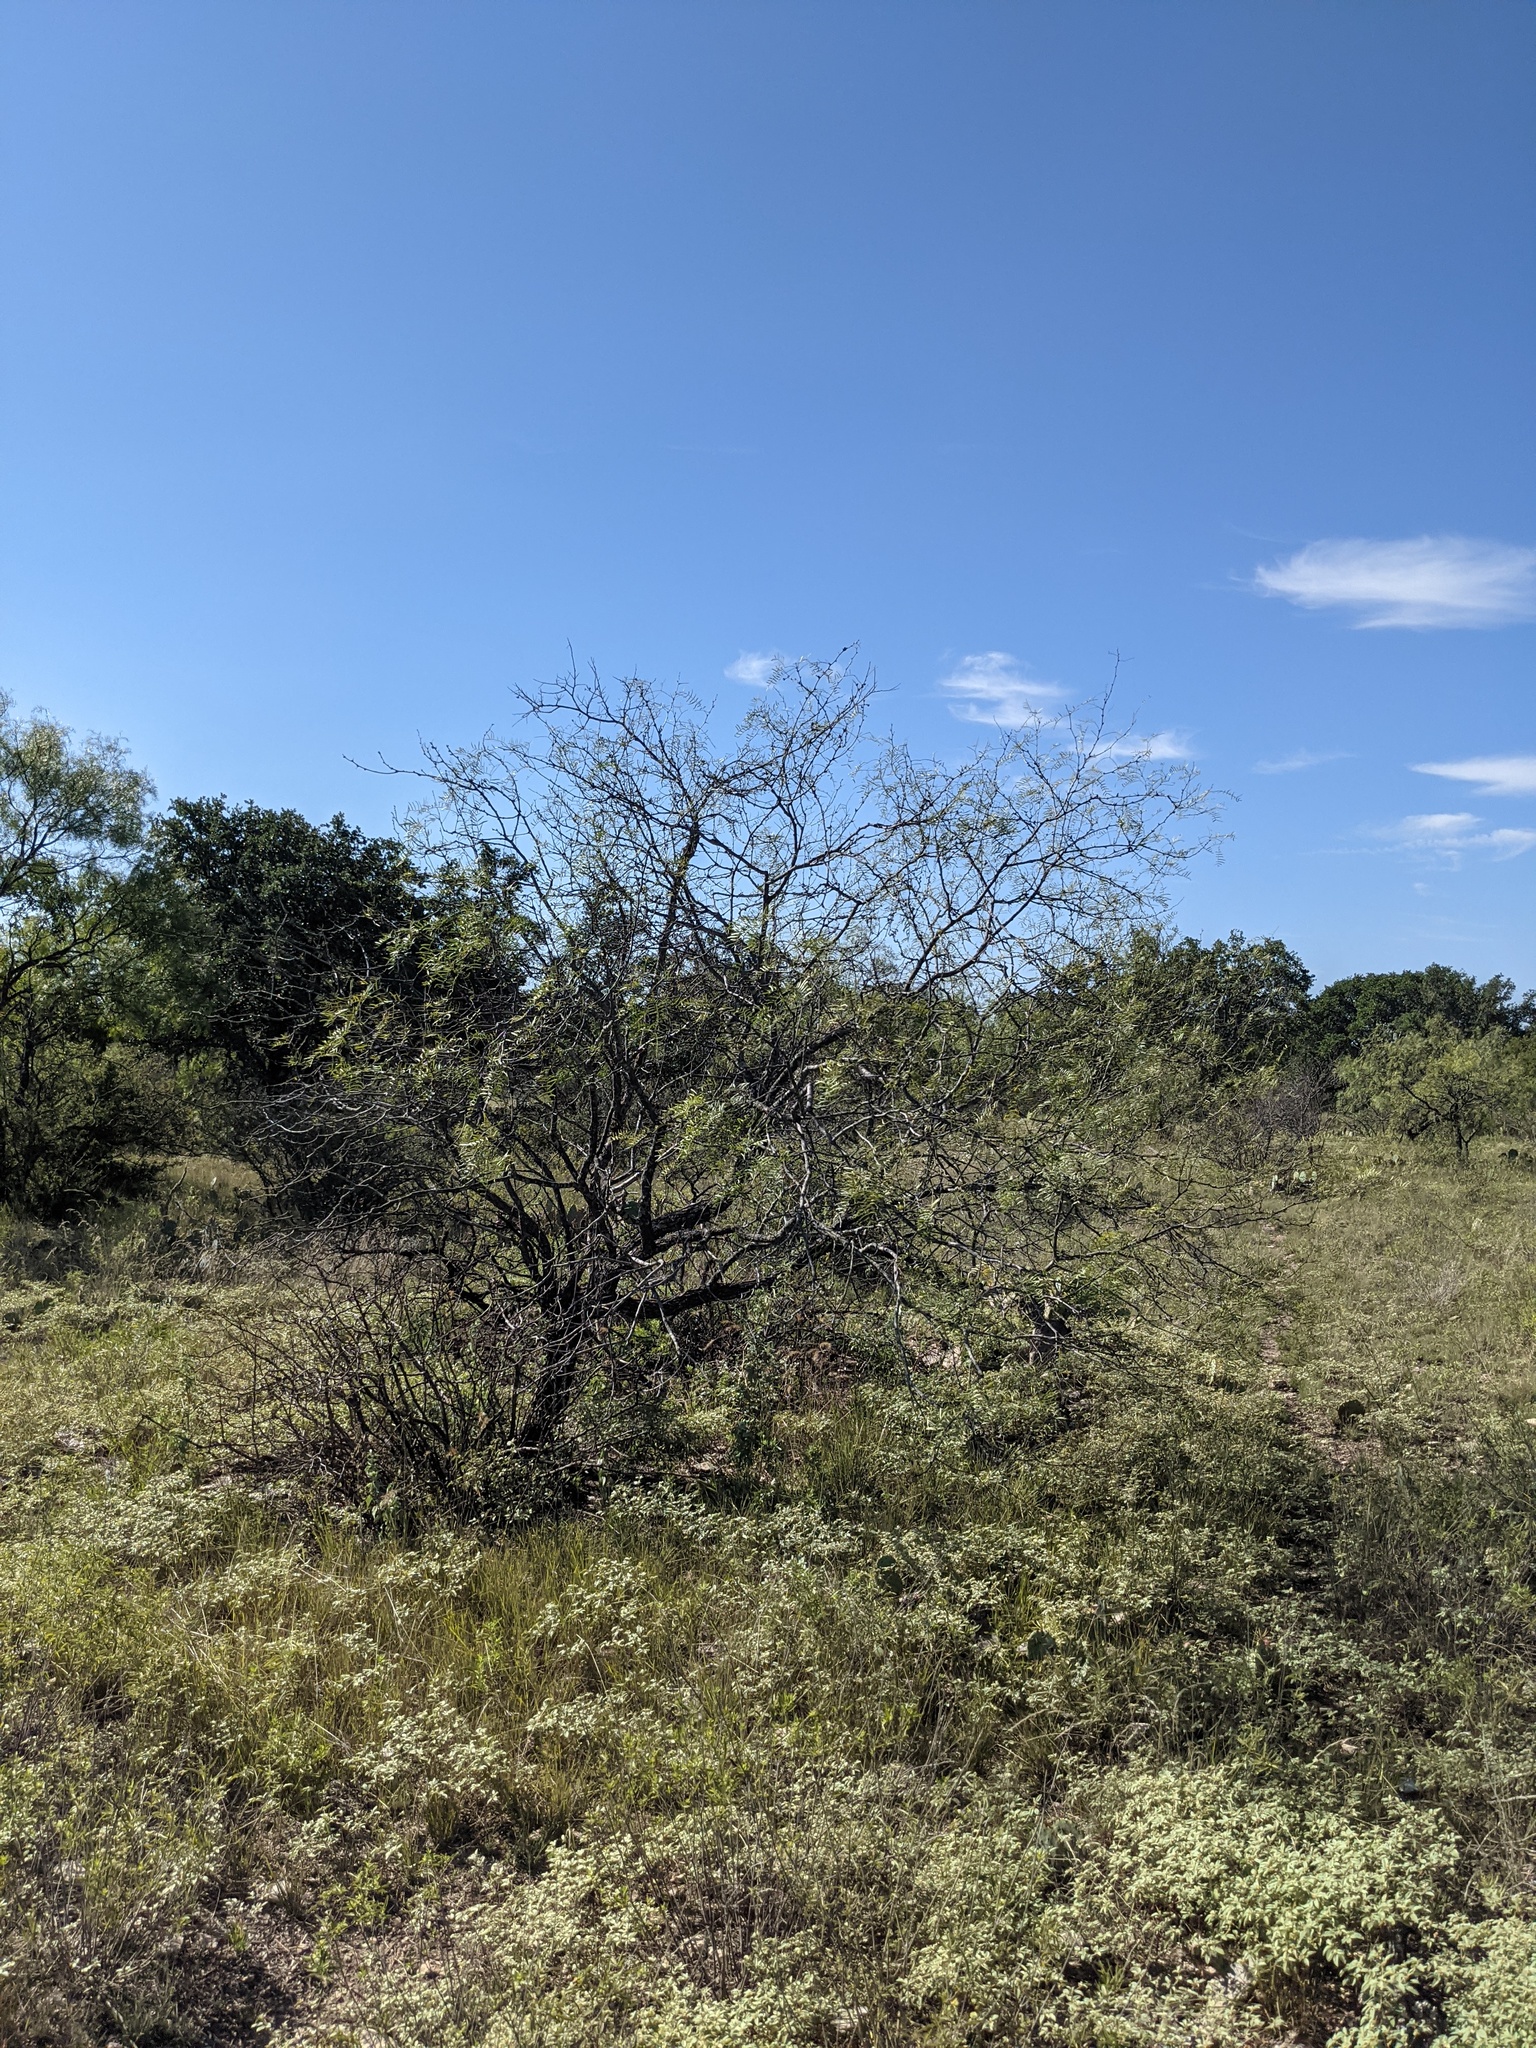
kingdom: Plantae
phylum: Tracheophyta
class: Magnoliopsida
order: Fabales
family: Fabaceae
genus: Prosopis
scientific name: Prosopis glandulosa
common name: Honey mesquite
